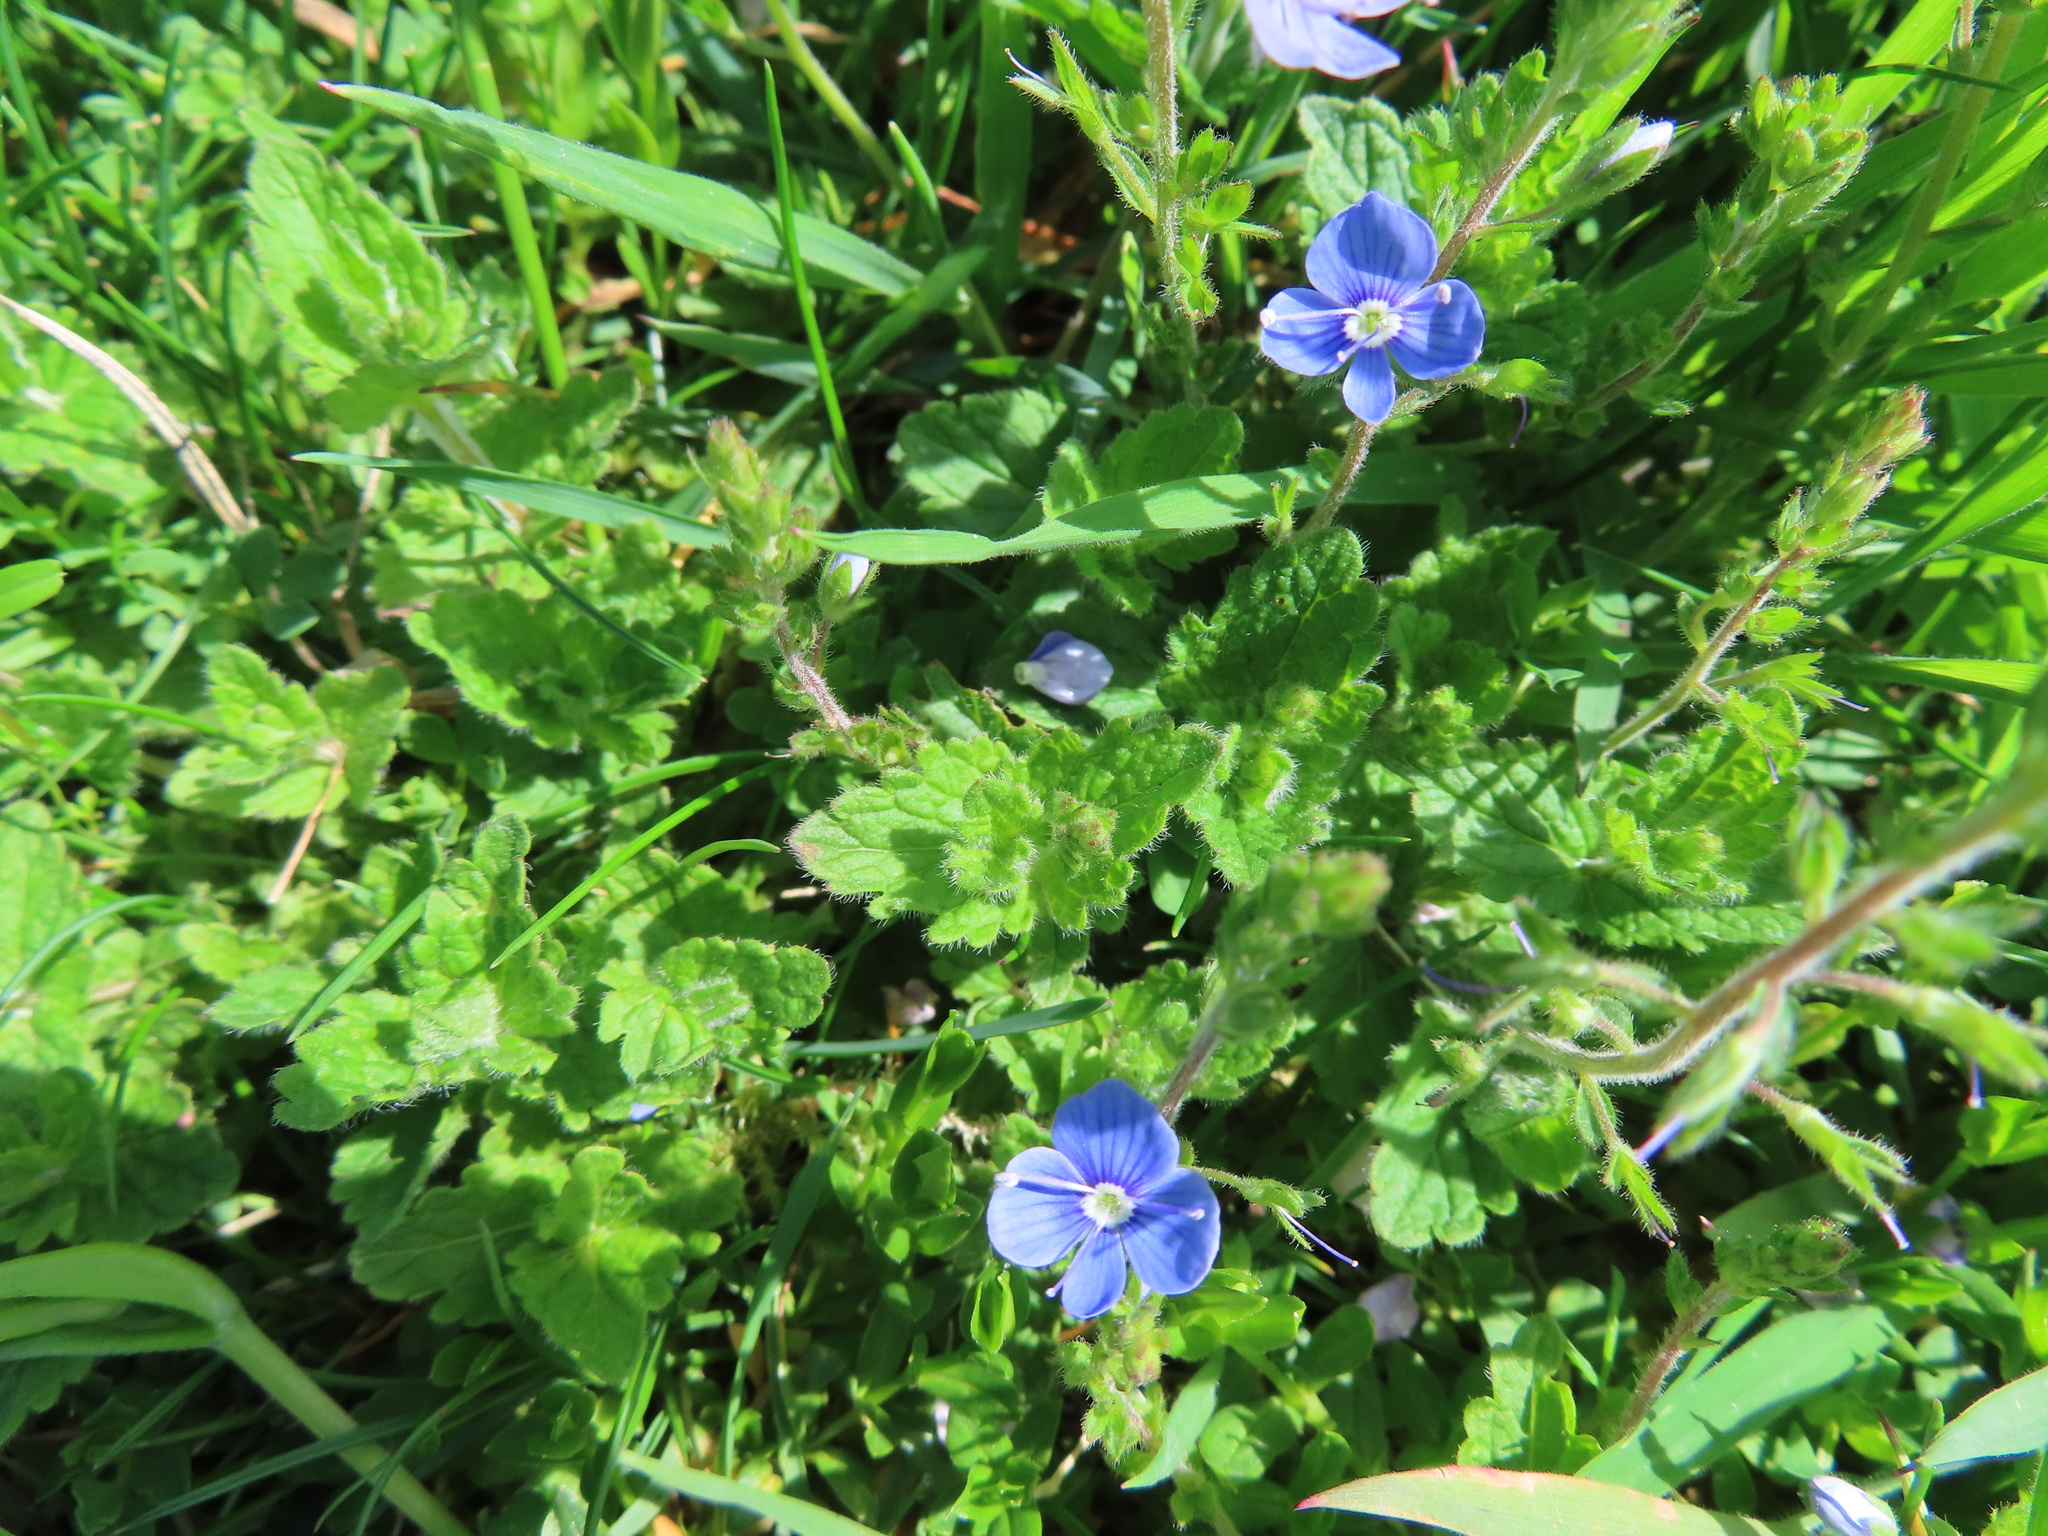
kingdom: Plantae
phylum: Tracheophyta
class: Magnoliopsida
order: Lamiales
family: Plantaginaceae
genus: Veronica
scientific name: Veronica chamaedrys
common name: Germander speedwell
